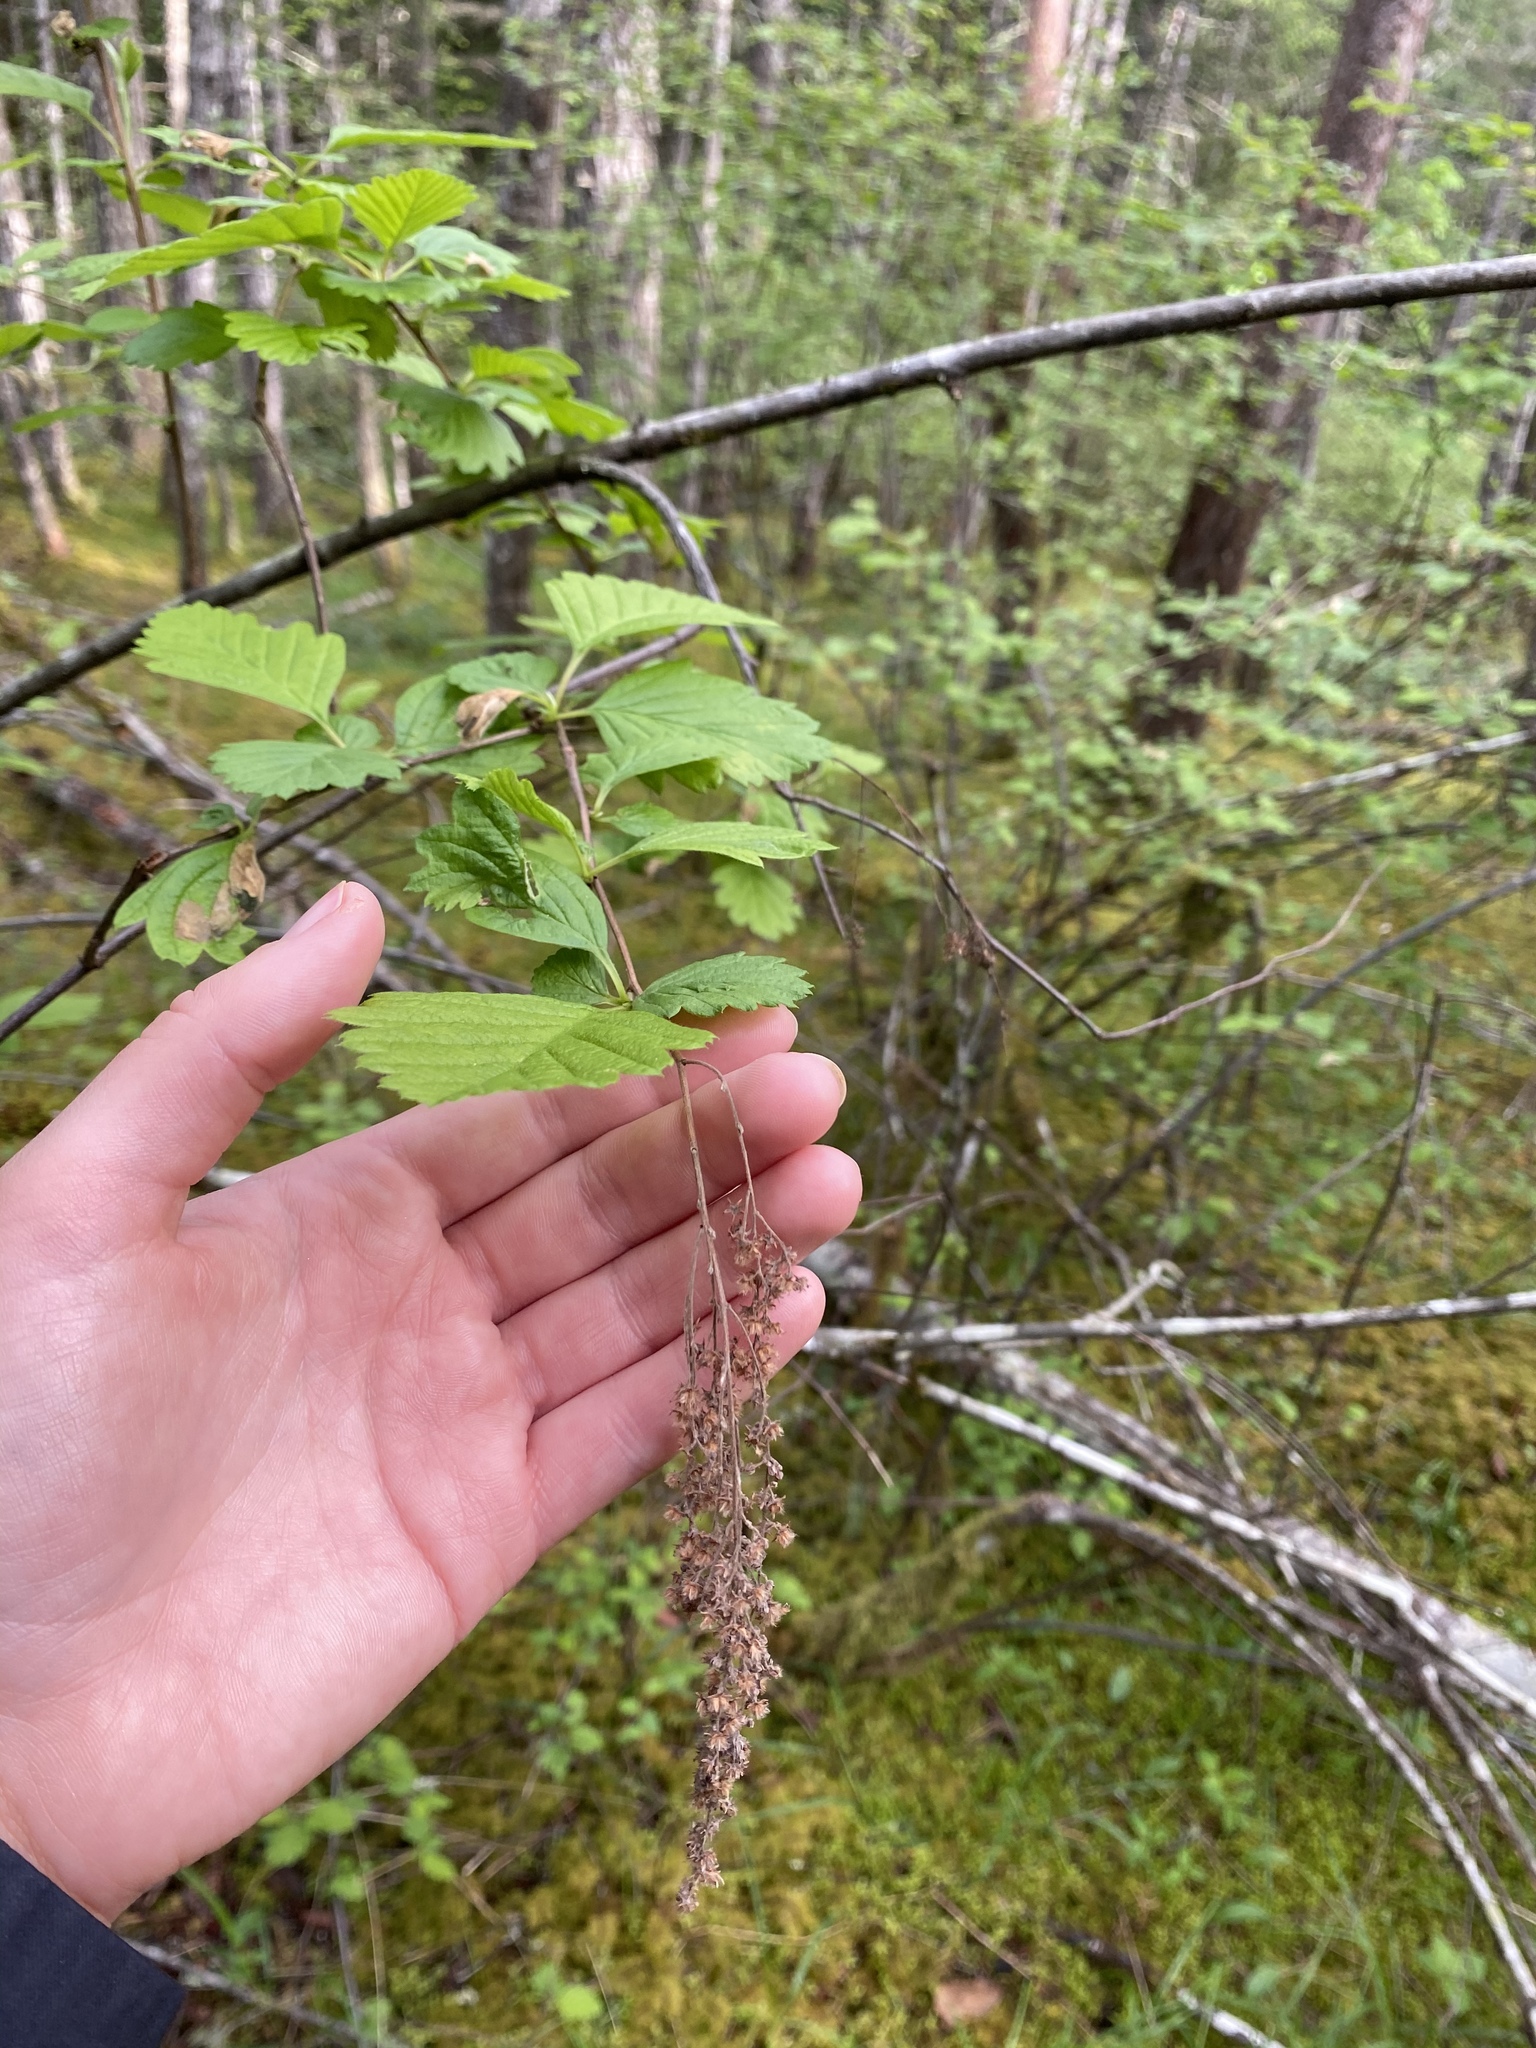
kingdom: Plantae
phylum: Tracheophyta
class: Magnoliopsida
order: Rosales
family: Rosaceae
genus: Holodiscus
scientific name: Holodiscus discolor
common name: Oceanspray
